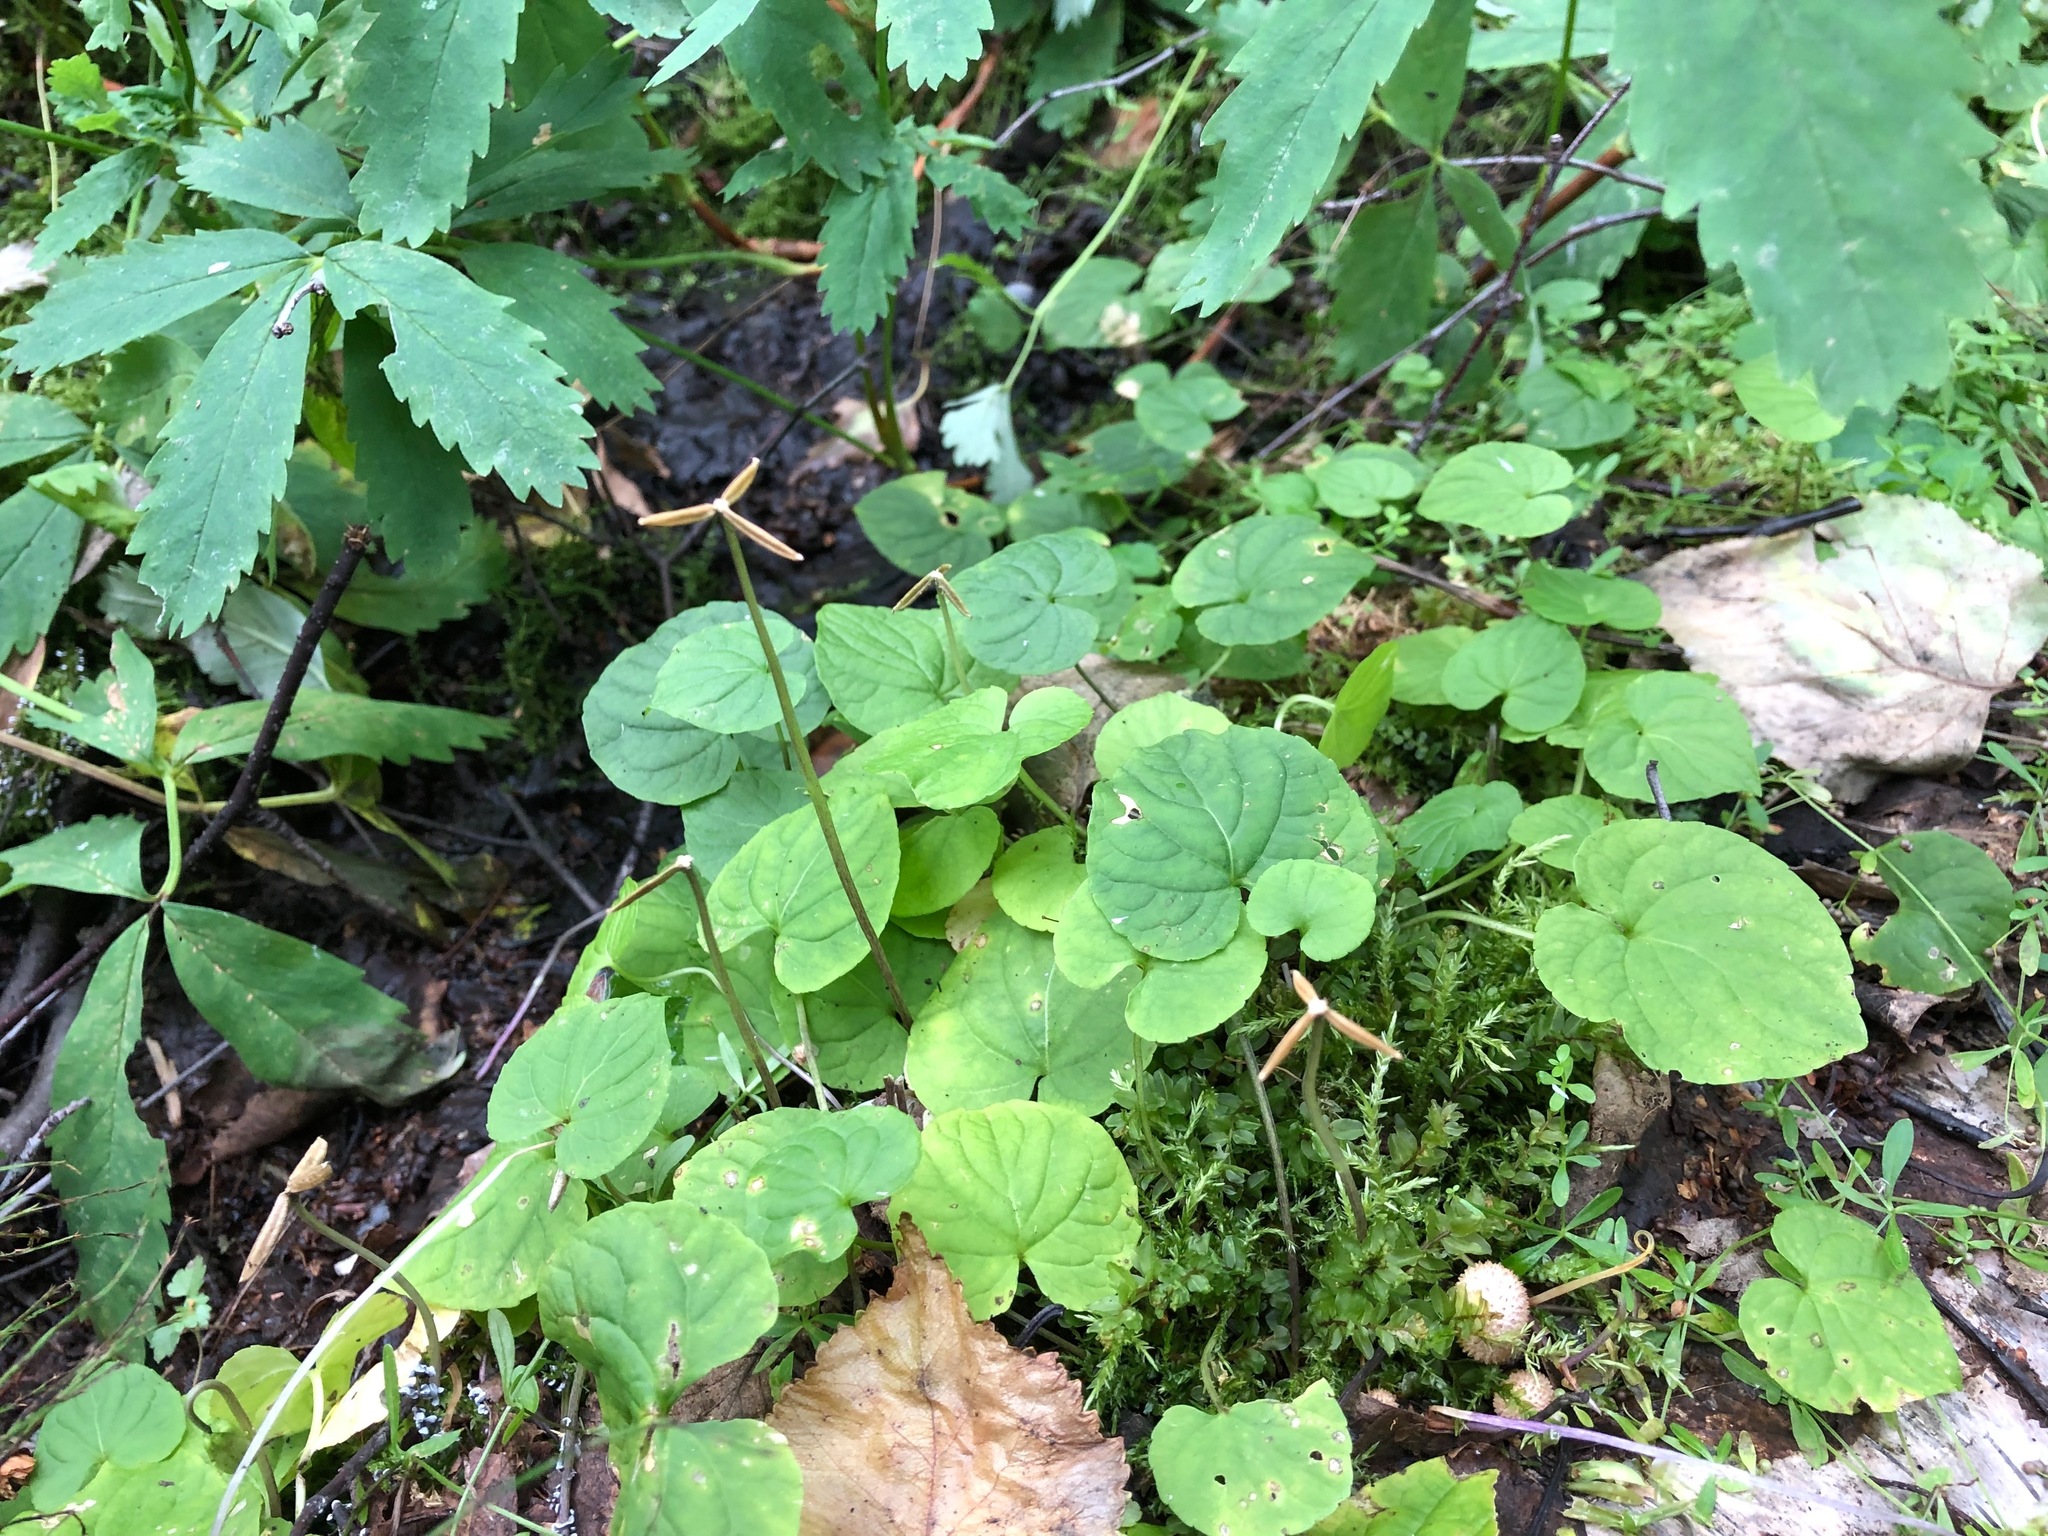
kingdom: Plantae
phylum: Tracheophyta
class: Magnoliopsida
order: Malpighiales
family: Violaceae
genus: Viola
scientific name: Viola epipsila
